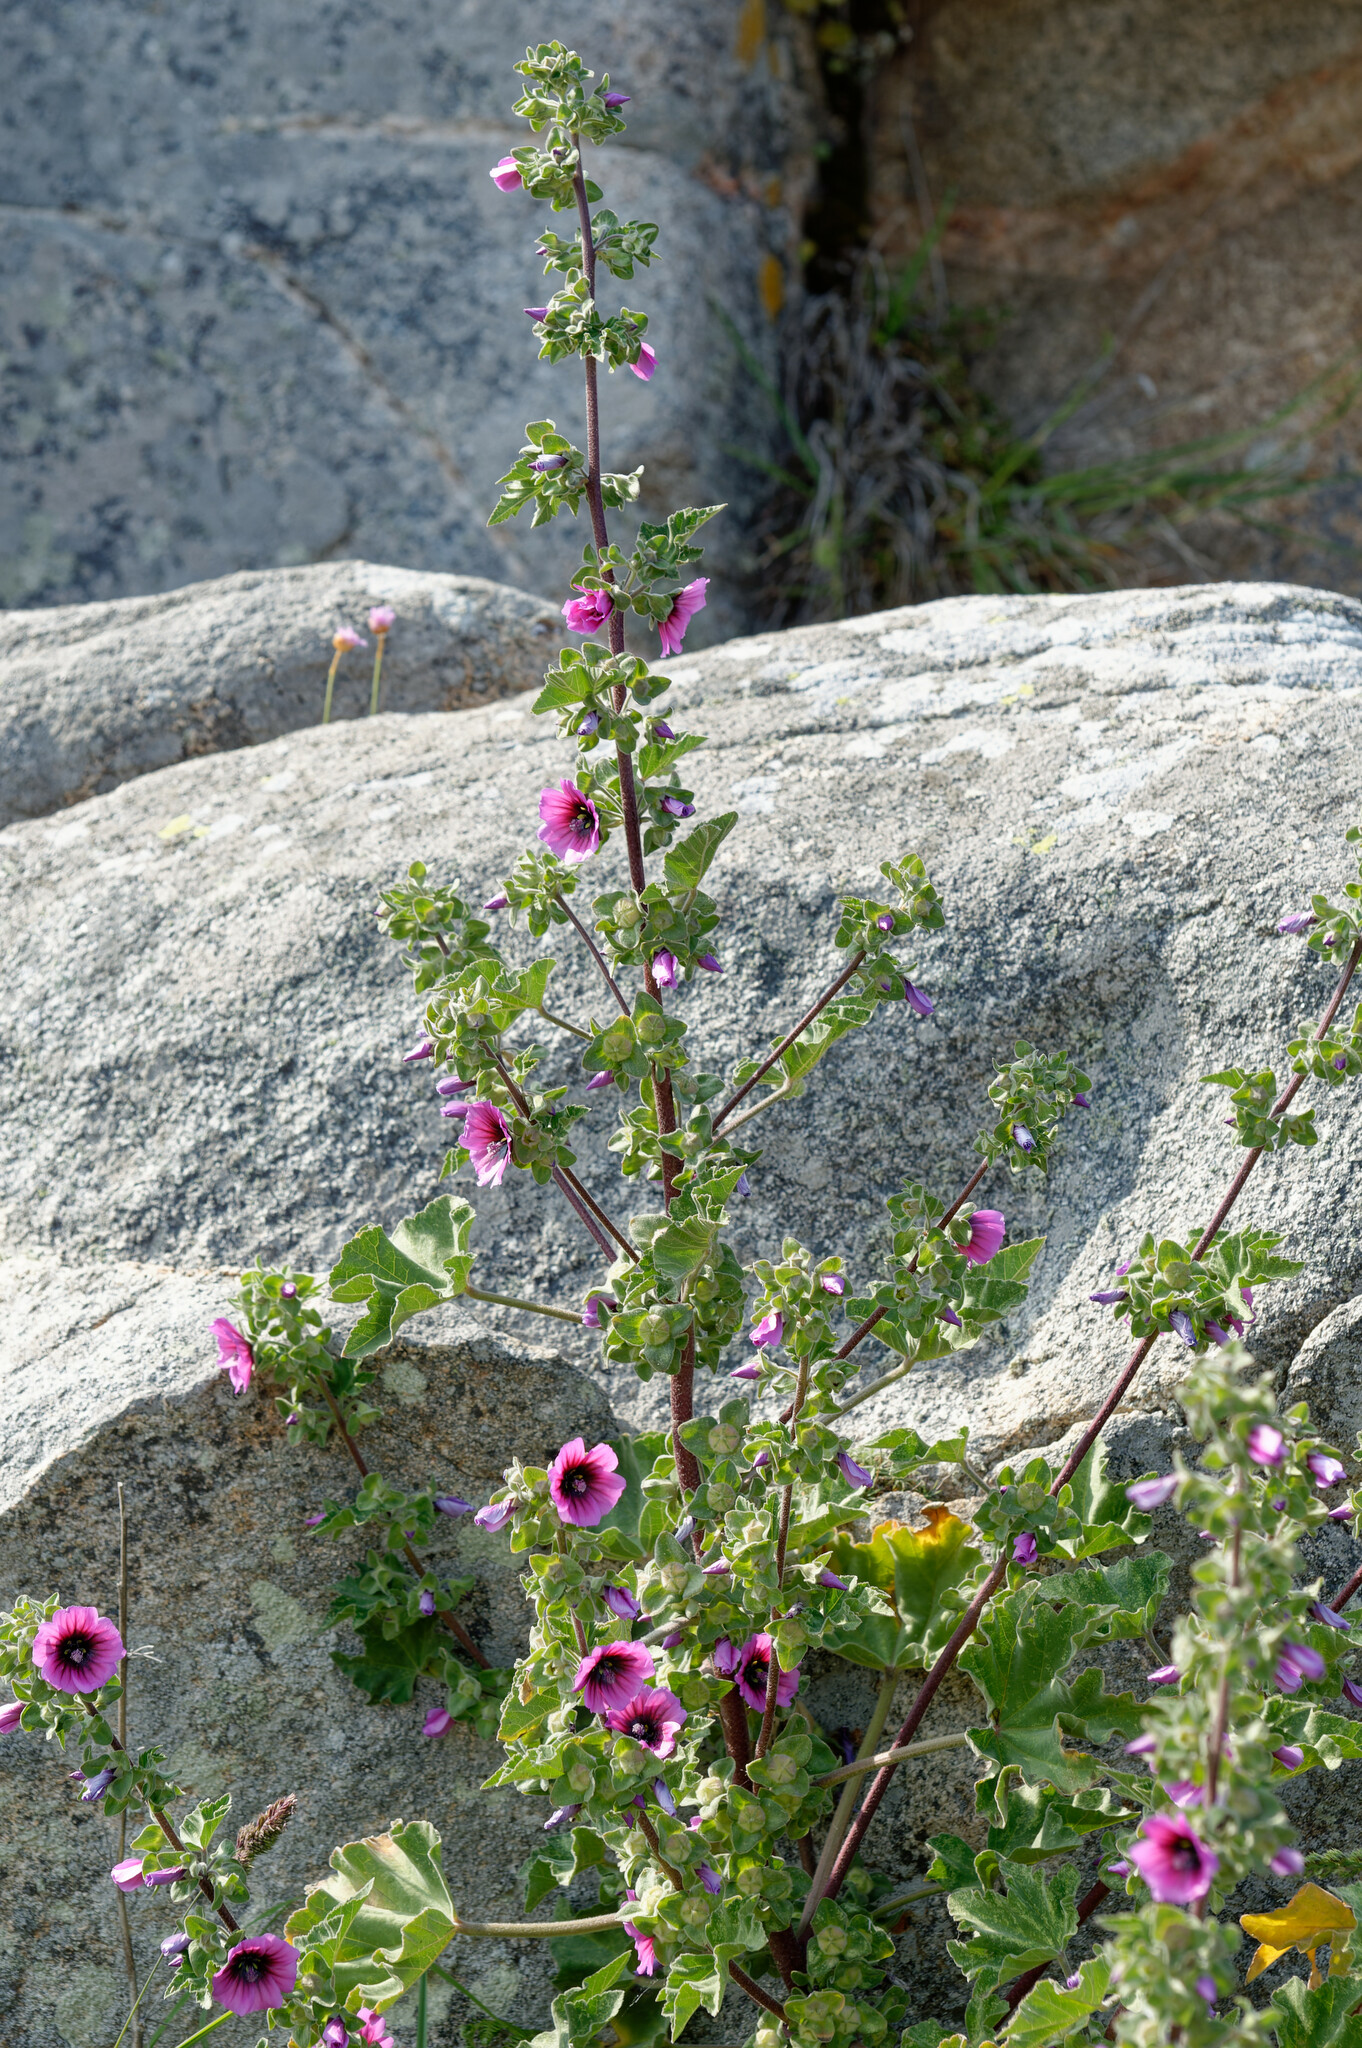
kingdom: Plantae
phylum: Tracheophyta
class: Magnoliopsida
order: Malvales
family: Malvaceae
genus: Malva
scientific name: Malva arborea
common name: Tree mallow
